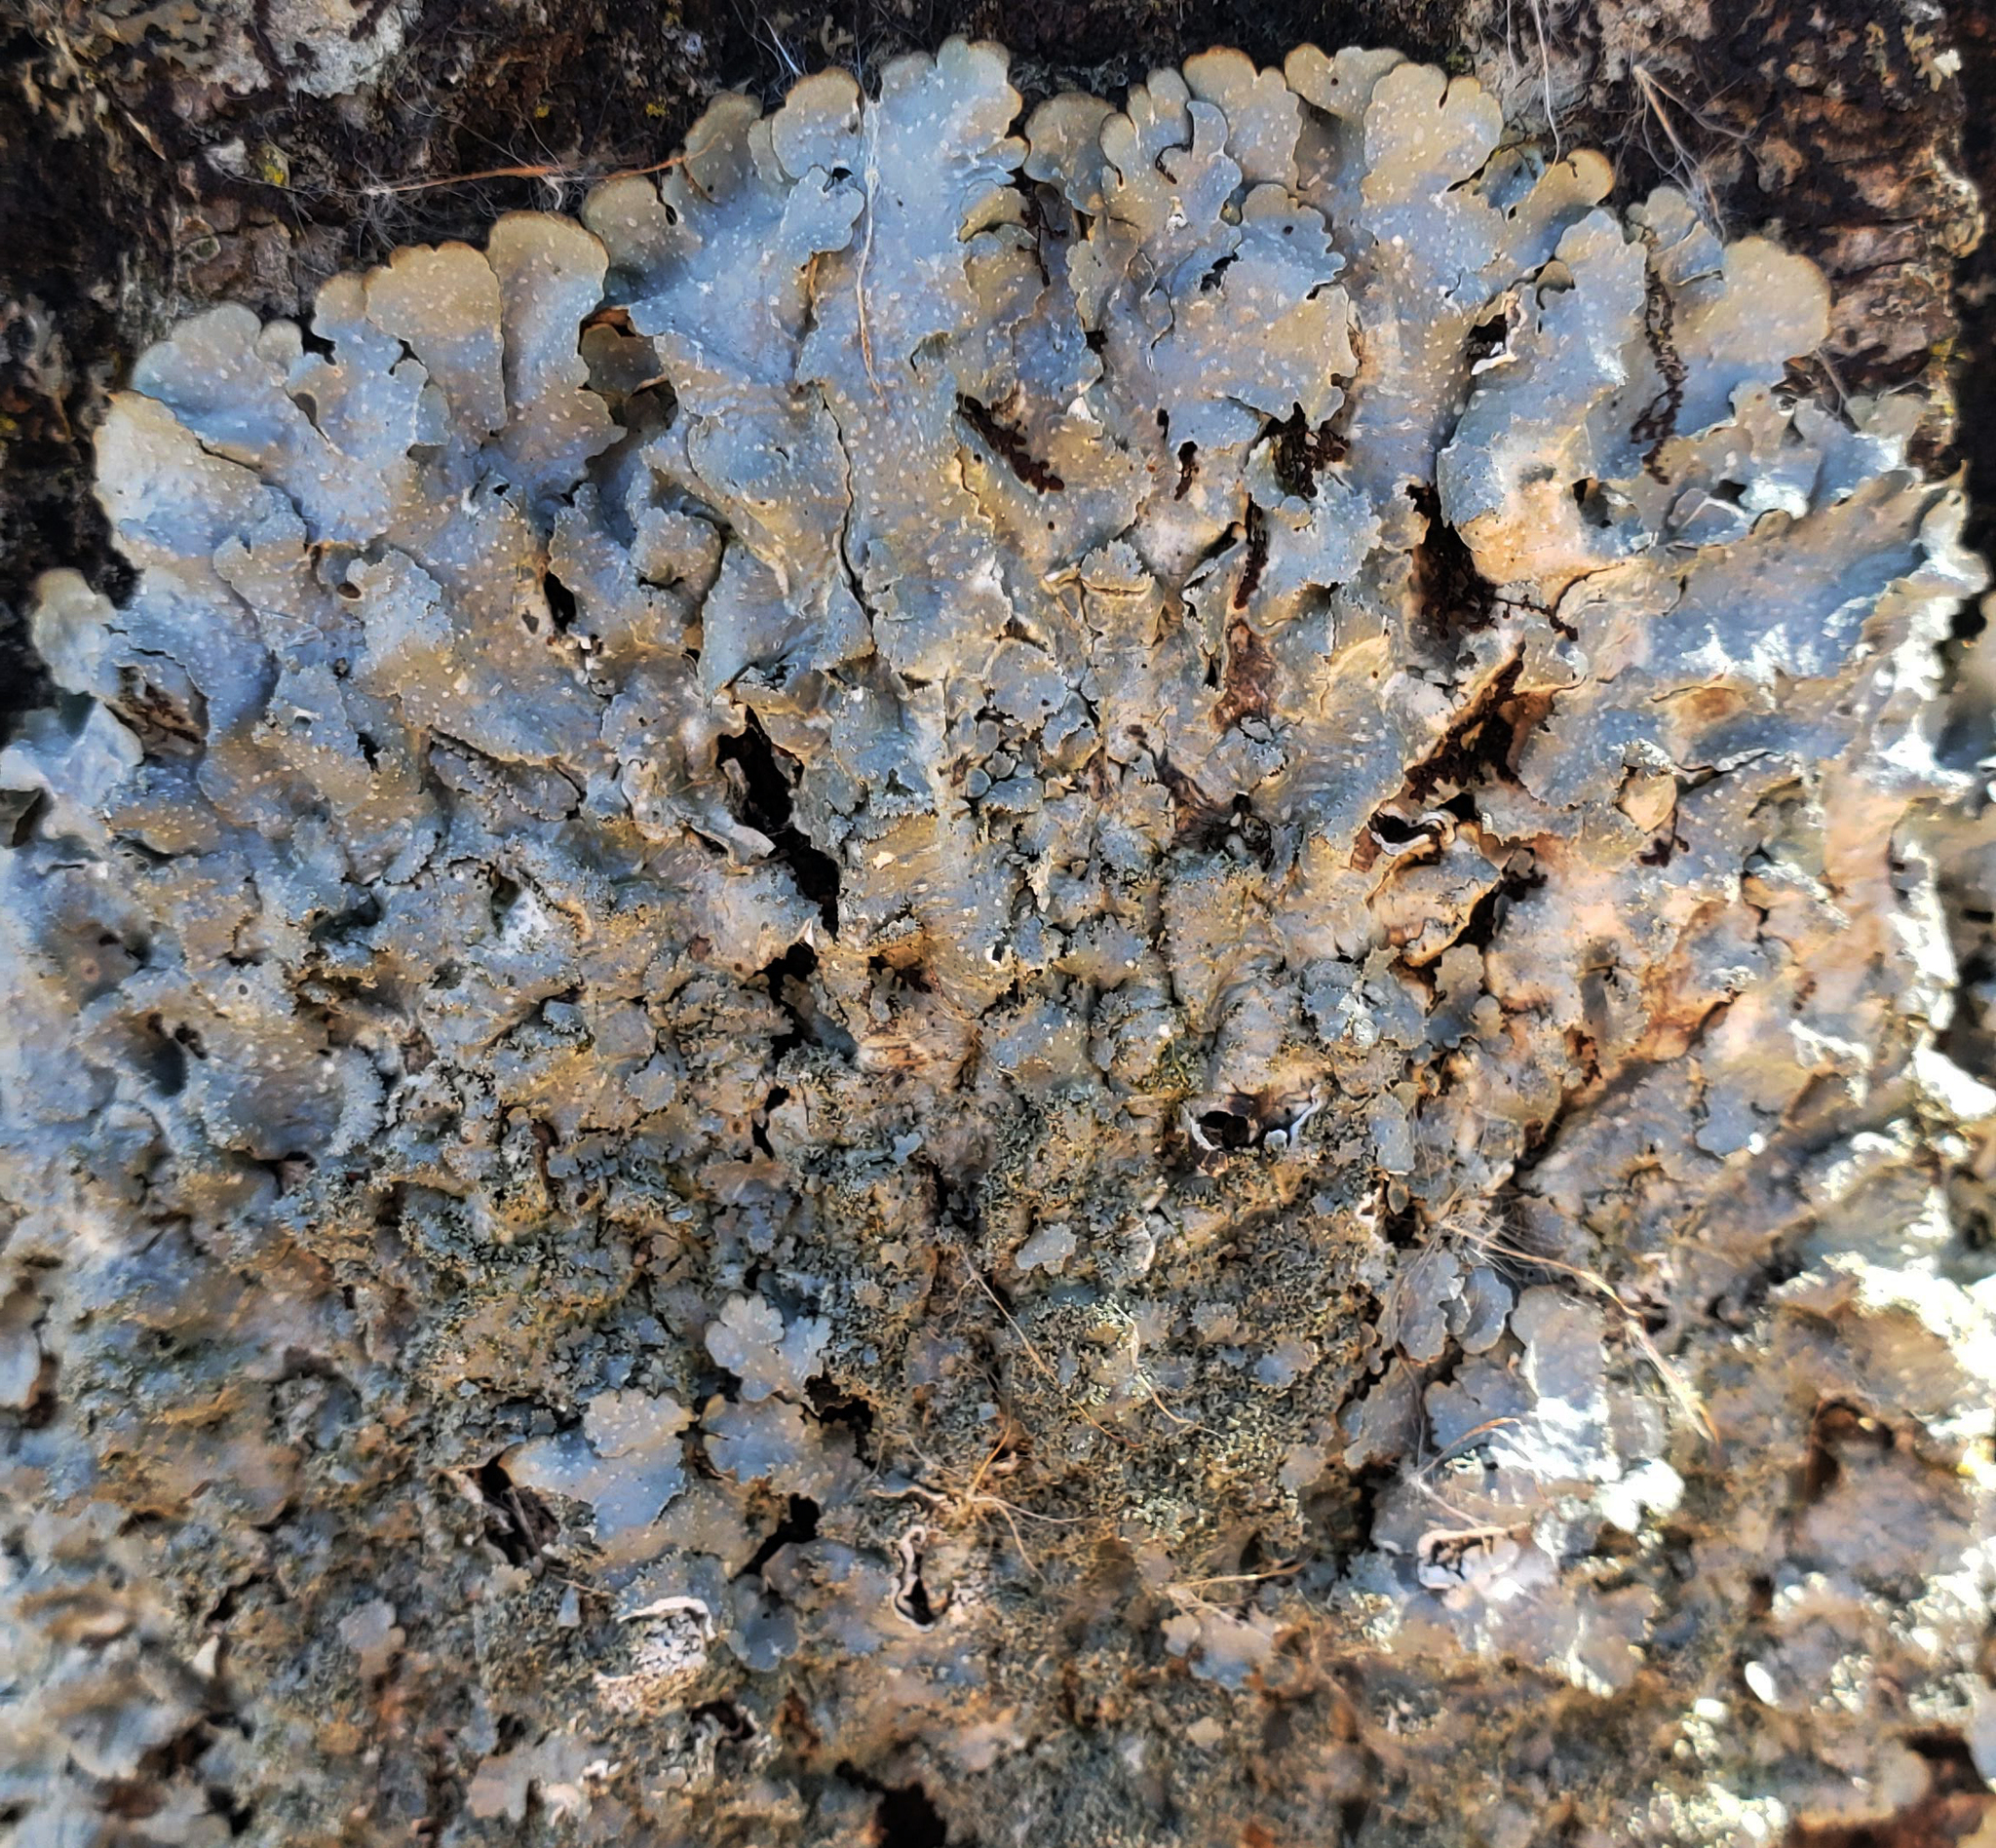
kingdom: Fungi
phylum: Ascomycota
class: Lecanoromycetes
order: Lecanorales
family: Parmeliaceae
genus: Punctelia
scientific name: Punctelia rudecta
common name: Rough speckled shield lichen
